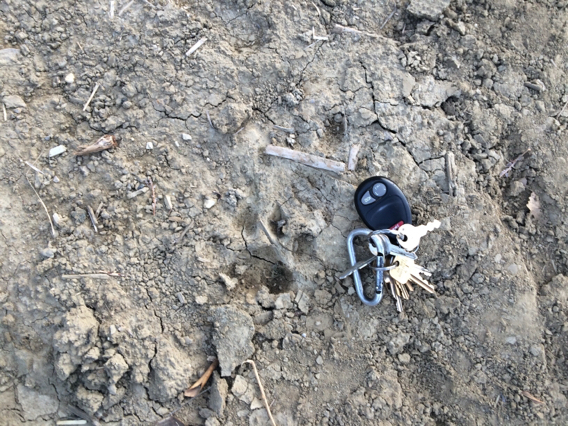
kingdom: Animalia
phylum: Chordata
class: Mammalia
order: Carnivora
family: Felidae
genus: Puma
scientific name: Puma concolor
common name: Puma
